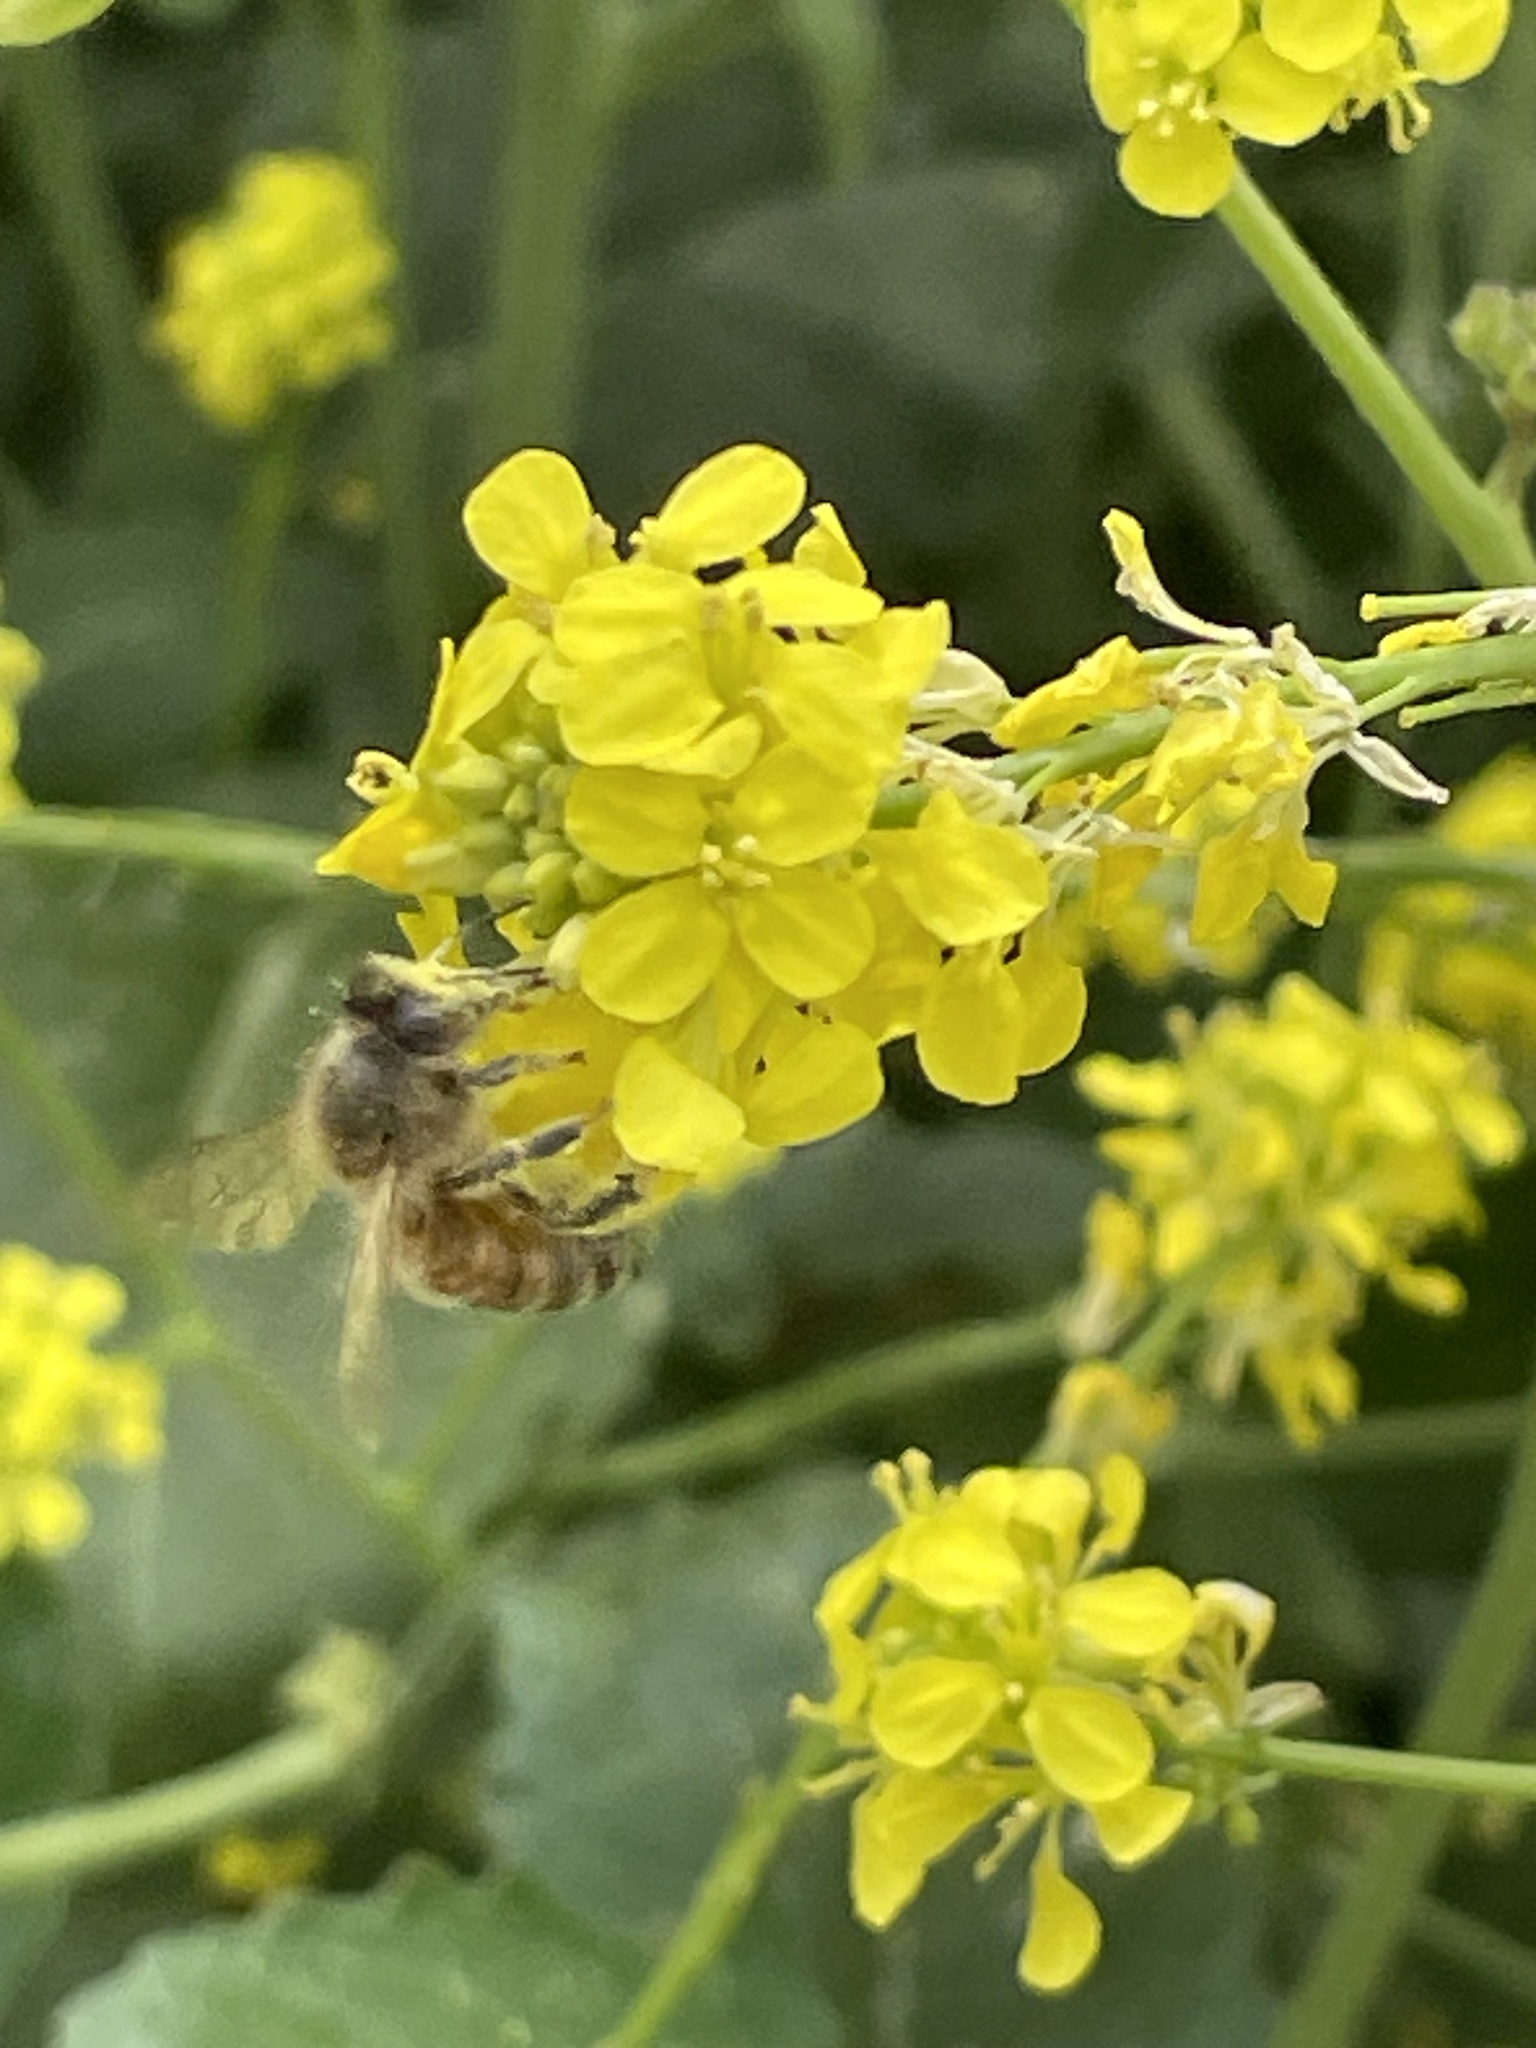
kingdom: Animalia
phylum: Arthropoda
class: Insecta
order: Hymenoptera
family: Apidae
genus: Apis
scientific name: Apis mellifera
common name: Honey bee
